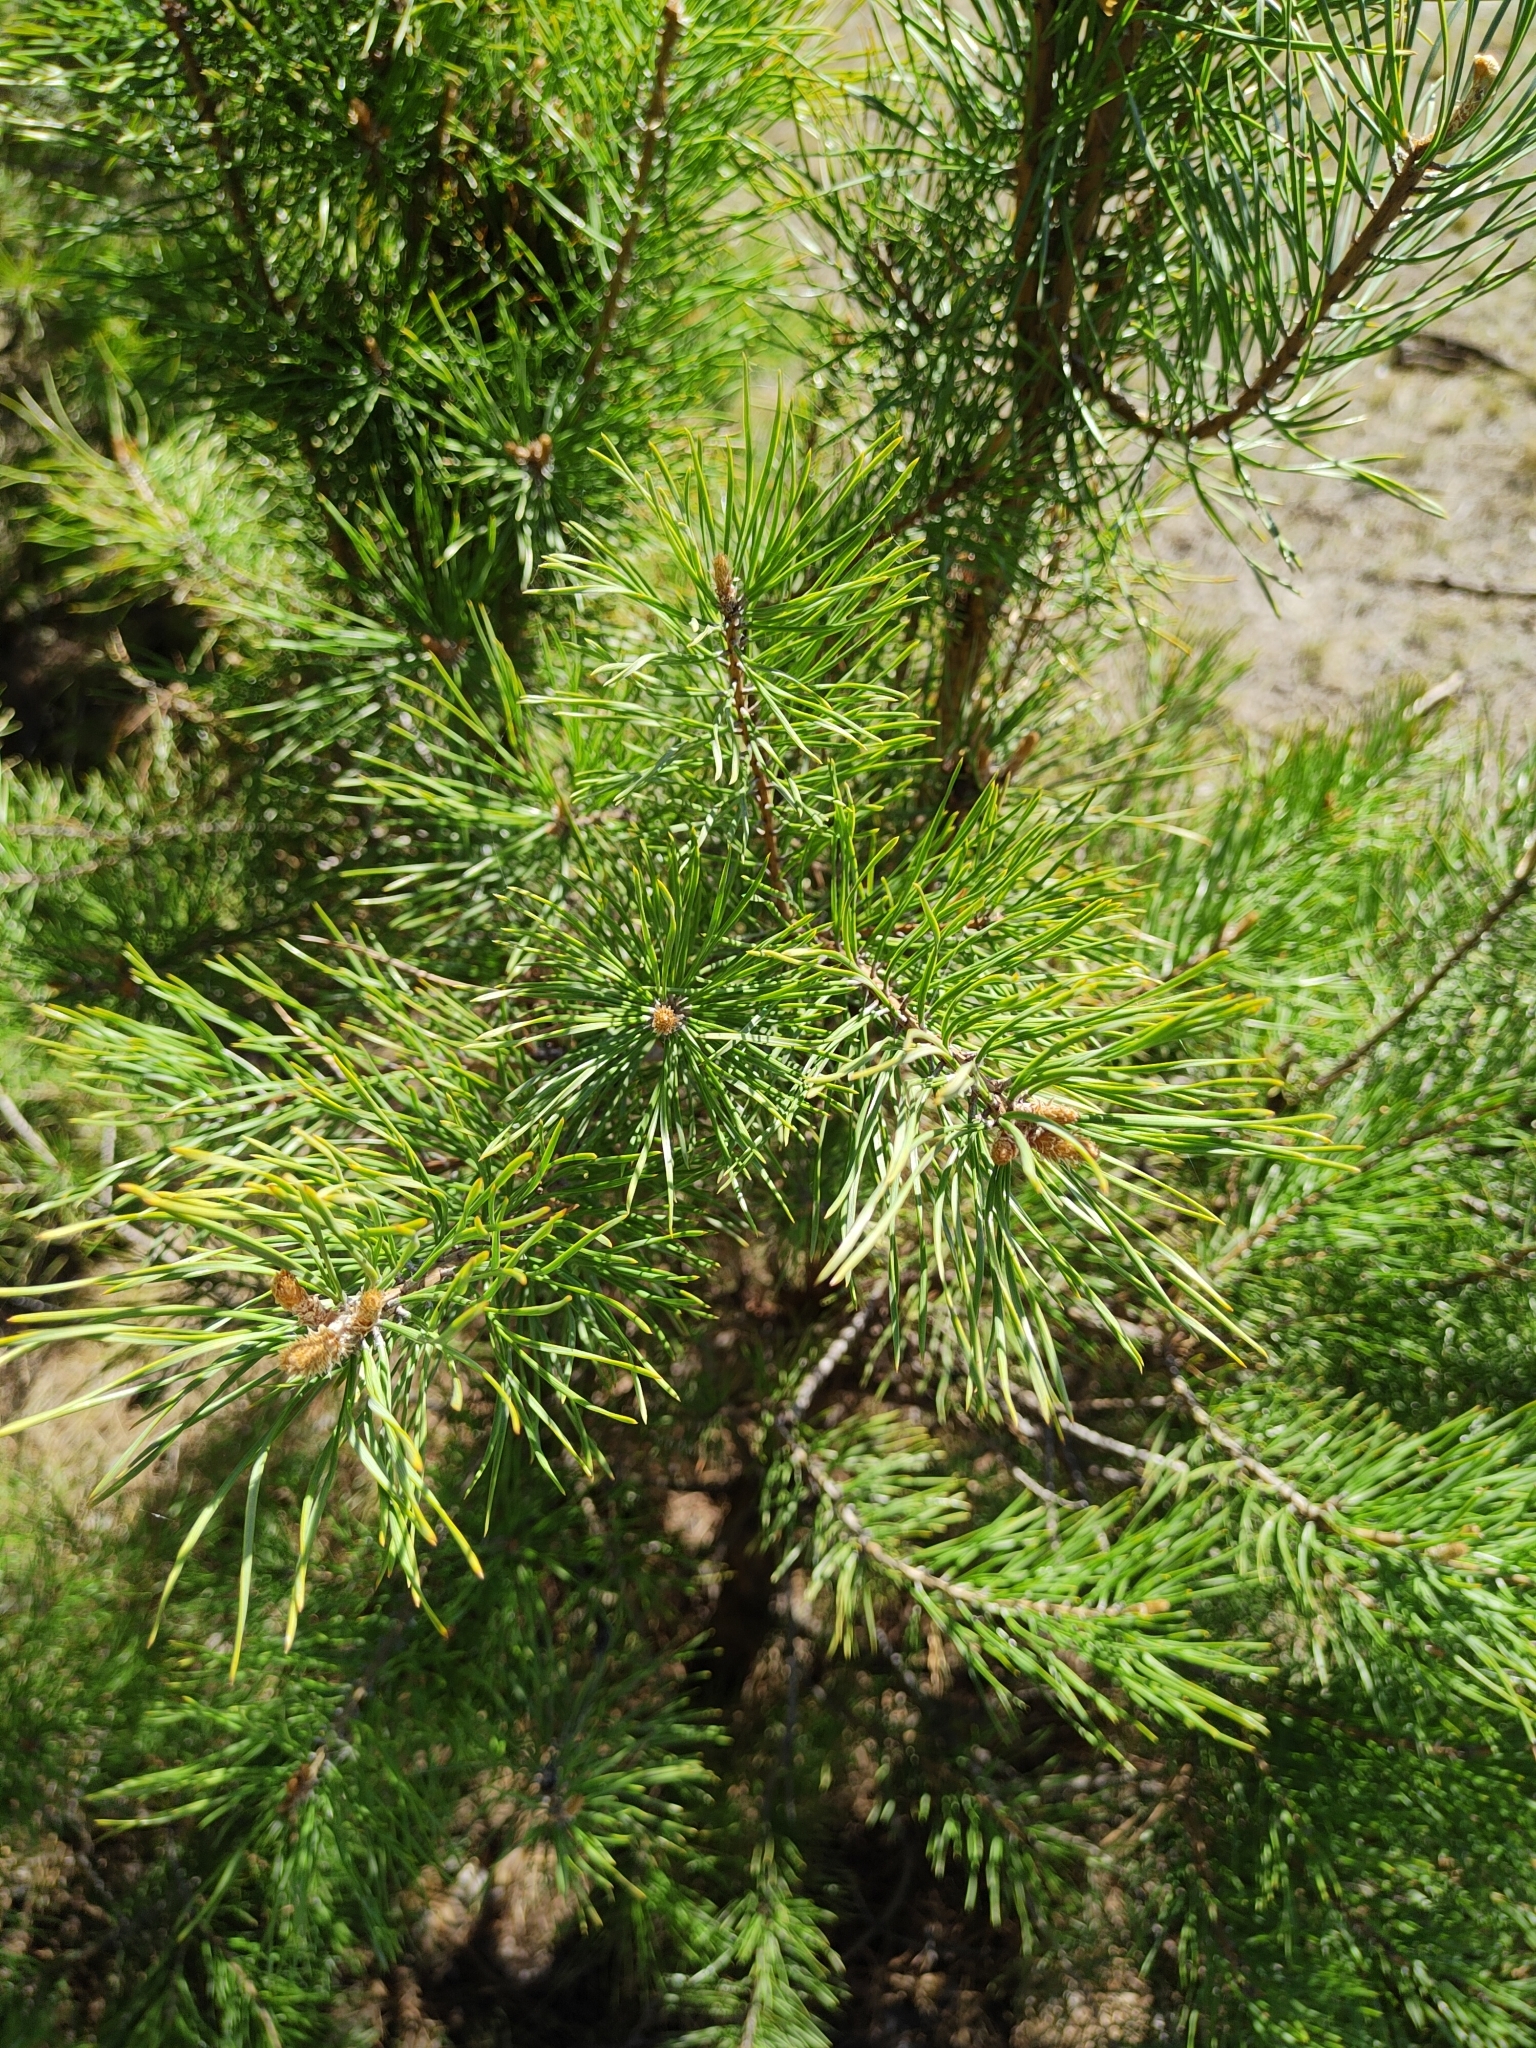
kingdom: Plantae
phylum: Tracheophyta
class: Pinopsida
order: Pinales
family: Pinaceae
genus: Pinus
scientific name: Pinus sylvestris
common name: Scots pine
